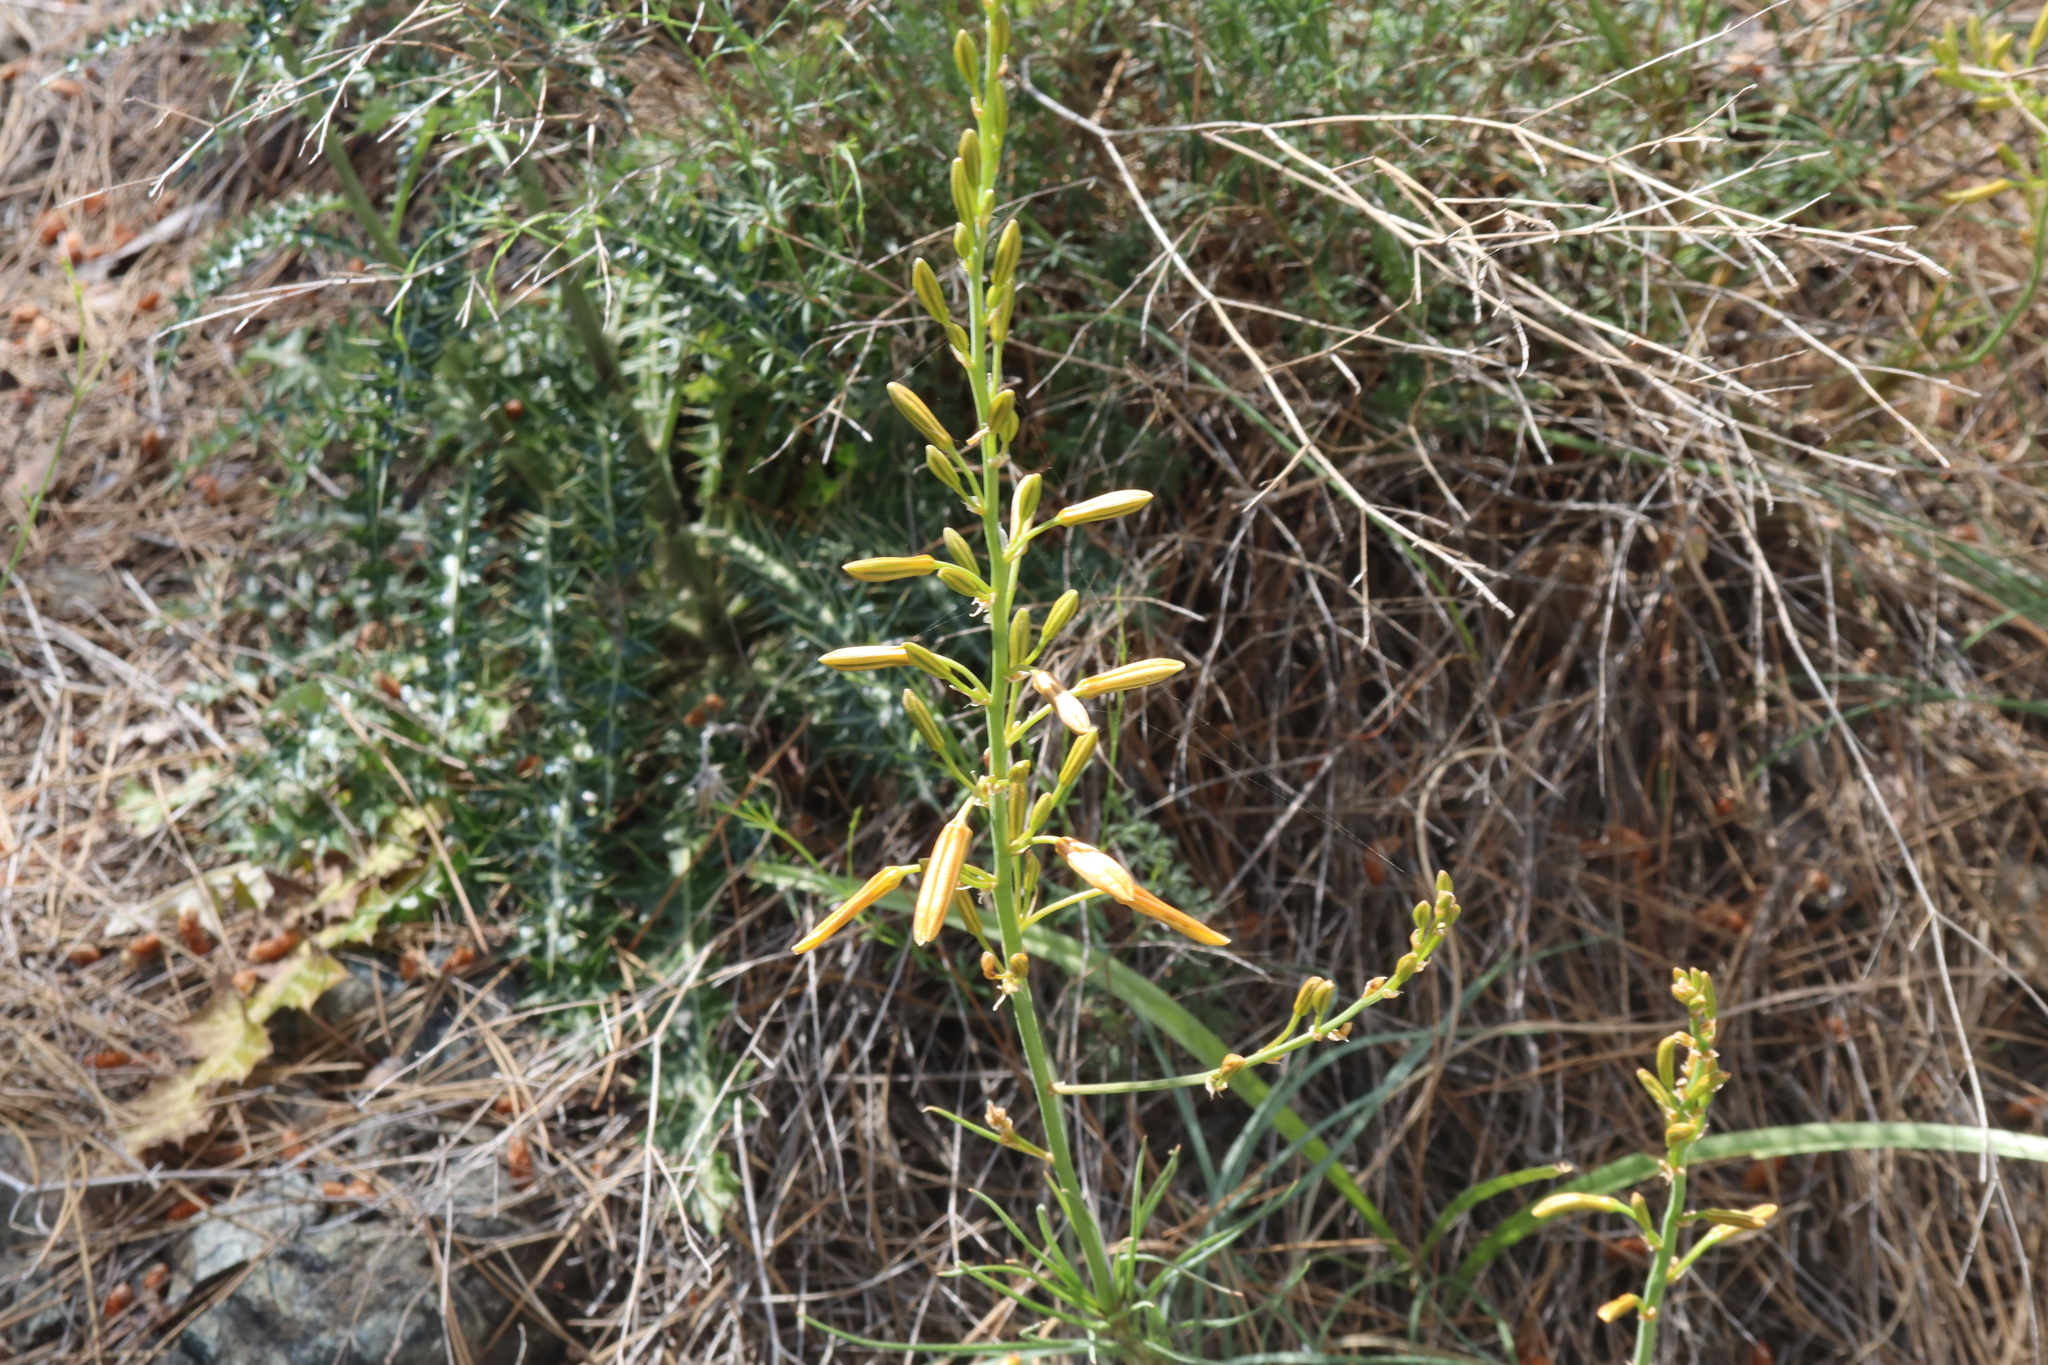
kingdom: Plantae
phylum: Tracheophyta
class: Liliopsida
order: Asparagales
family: Asphodelaceae
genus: Asphodeline
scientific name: Asphodeline liburnica
